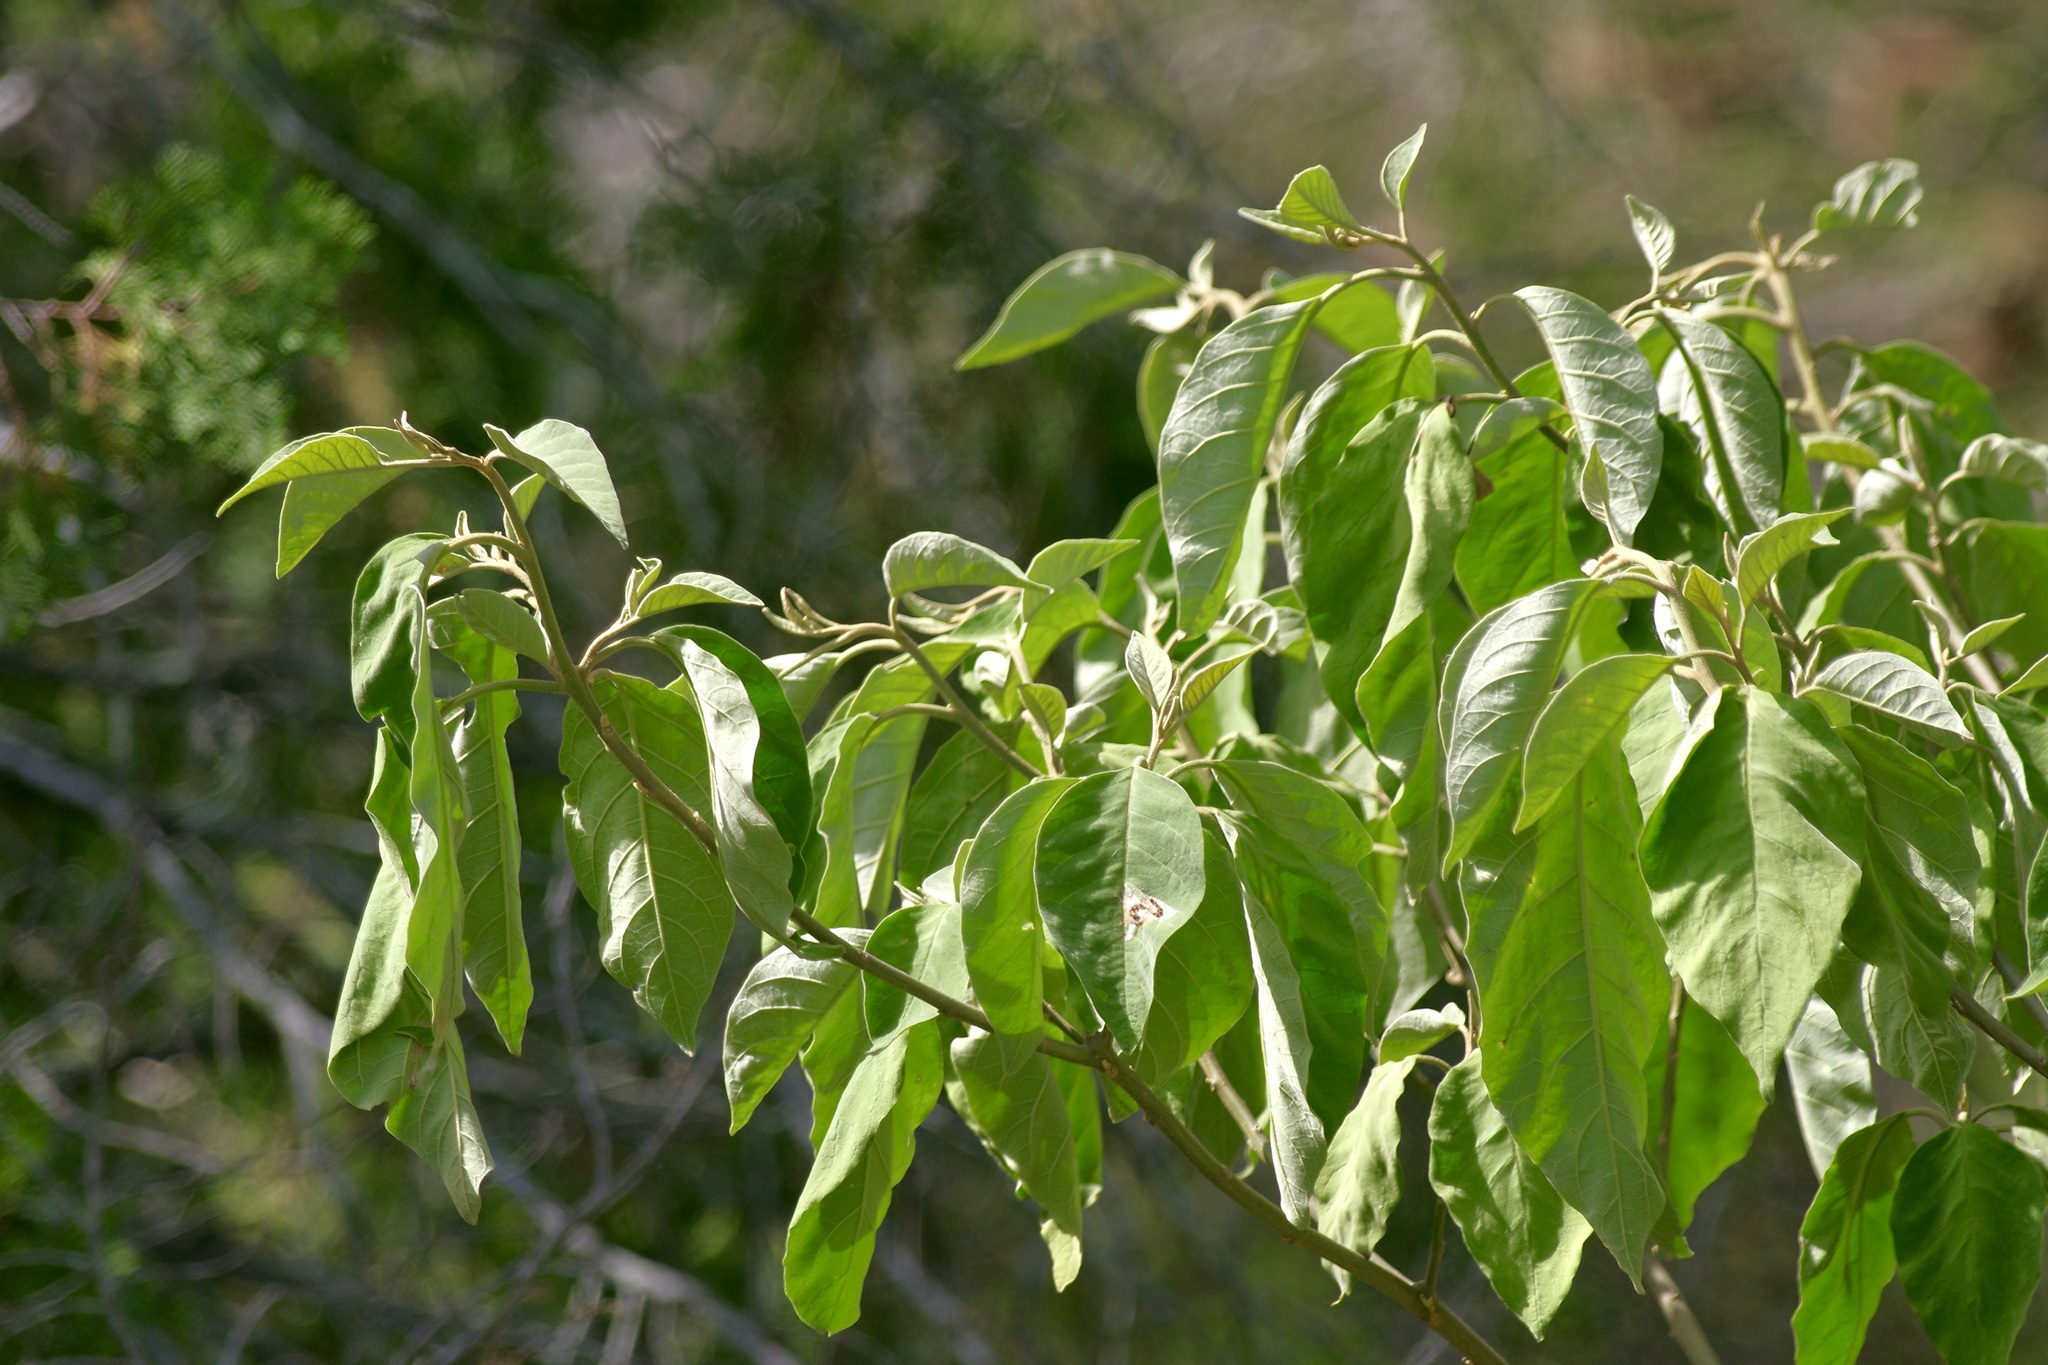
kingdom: Plantae
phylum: Tracheophyta
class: Magnoliopsida
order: Solanales
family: Solanaceae
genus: Solanum
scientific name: Solanum erianthum
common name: Tobacco-tree
